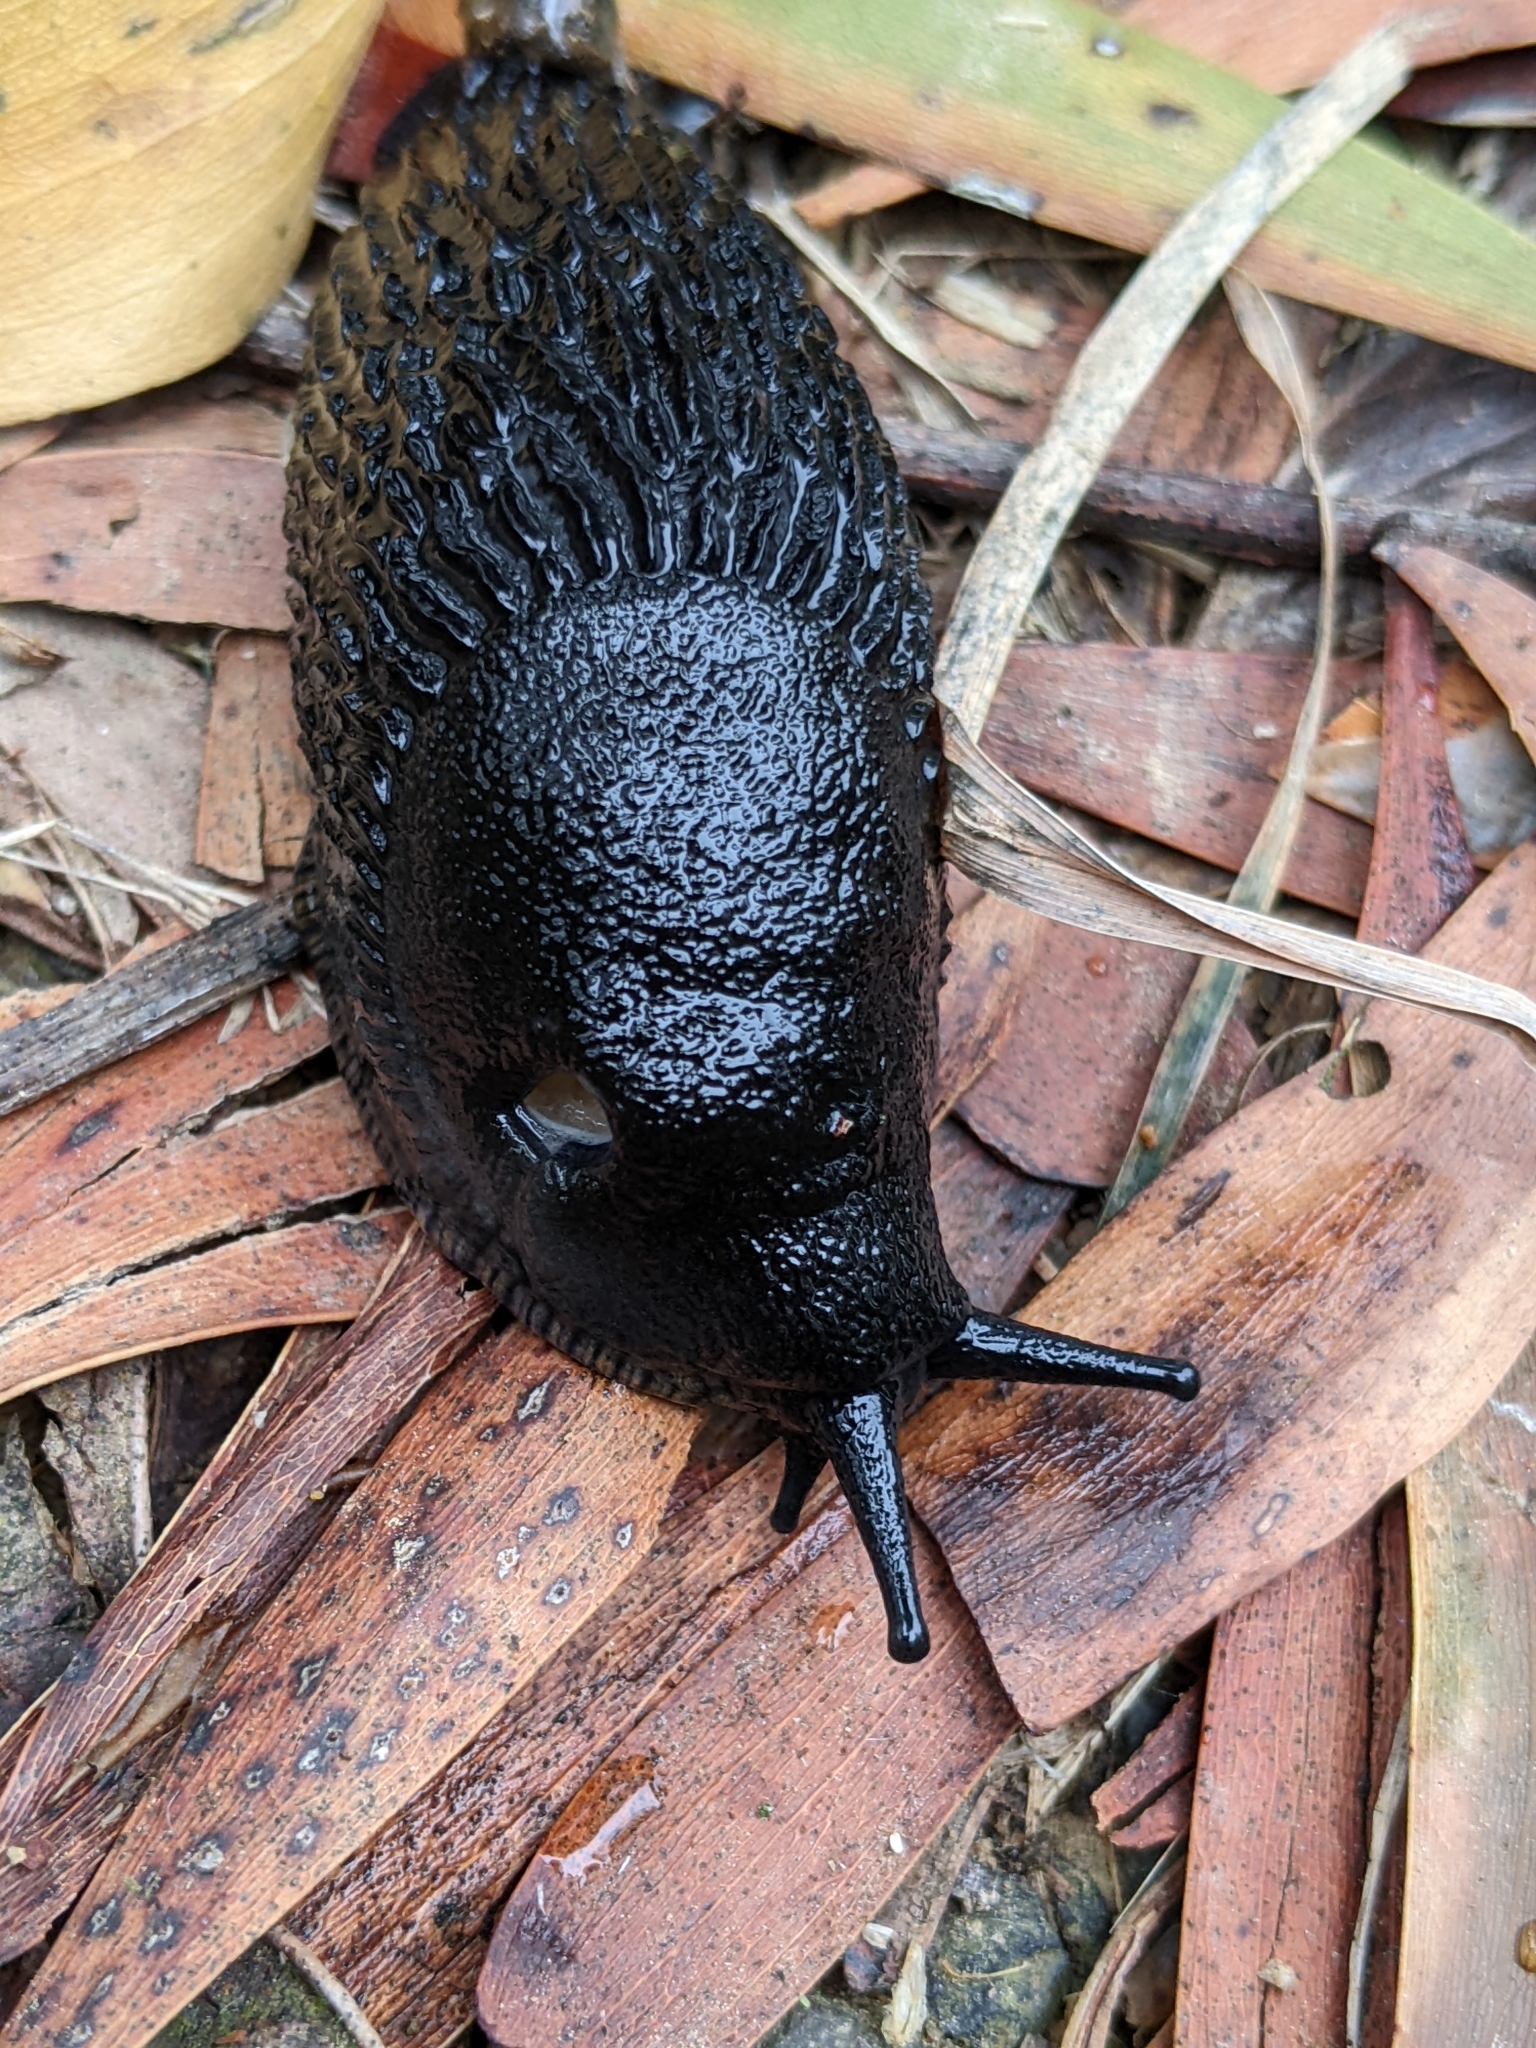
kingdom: Animalia
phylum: Mollusca
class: Gastropoda
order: Stylommatophora
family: Arionidae
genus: Arion
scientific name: Arion ater
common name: Black arion
